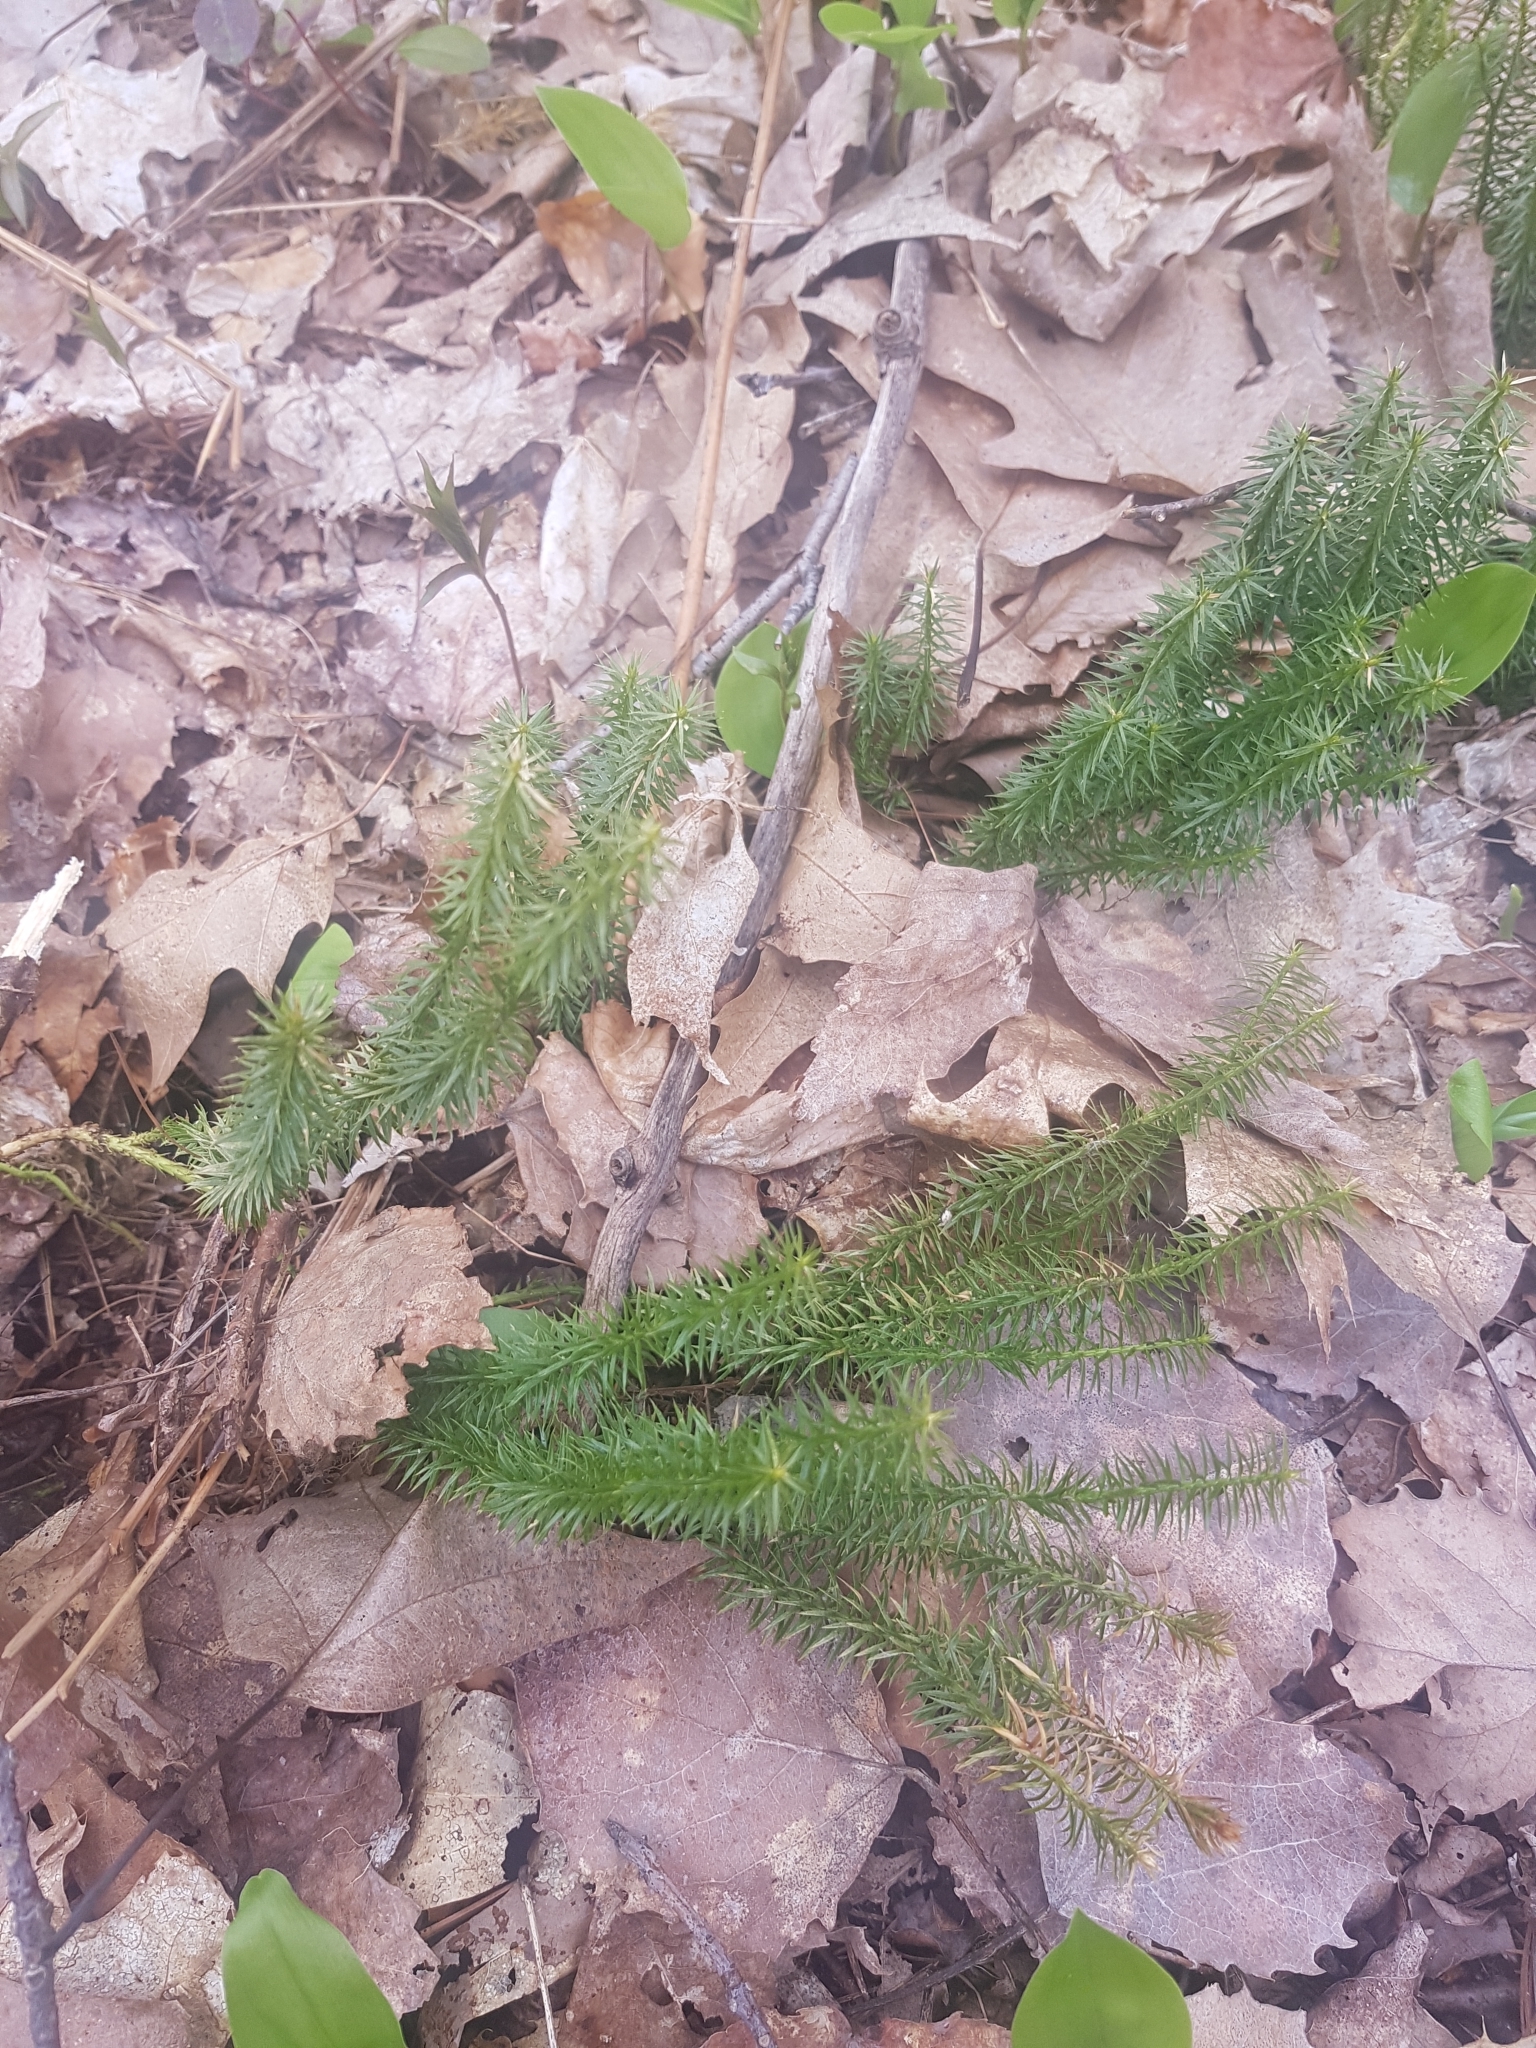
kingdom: Plantae
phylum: Tracheophyta
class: Lycopodiopsida
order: Lycopodiales
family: Lycopodiaceae
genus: Spinulum
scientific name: Spinulum annotinum
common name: Interrupted club-moss
